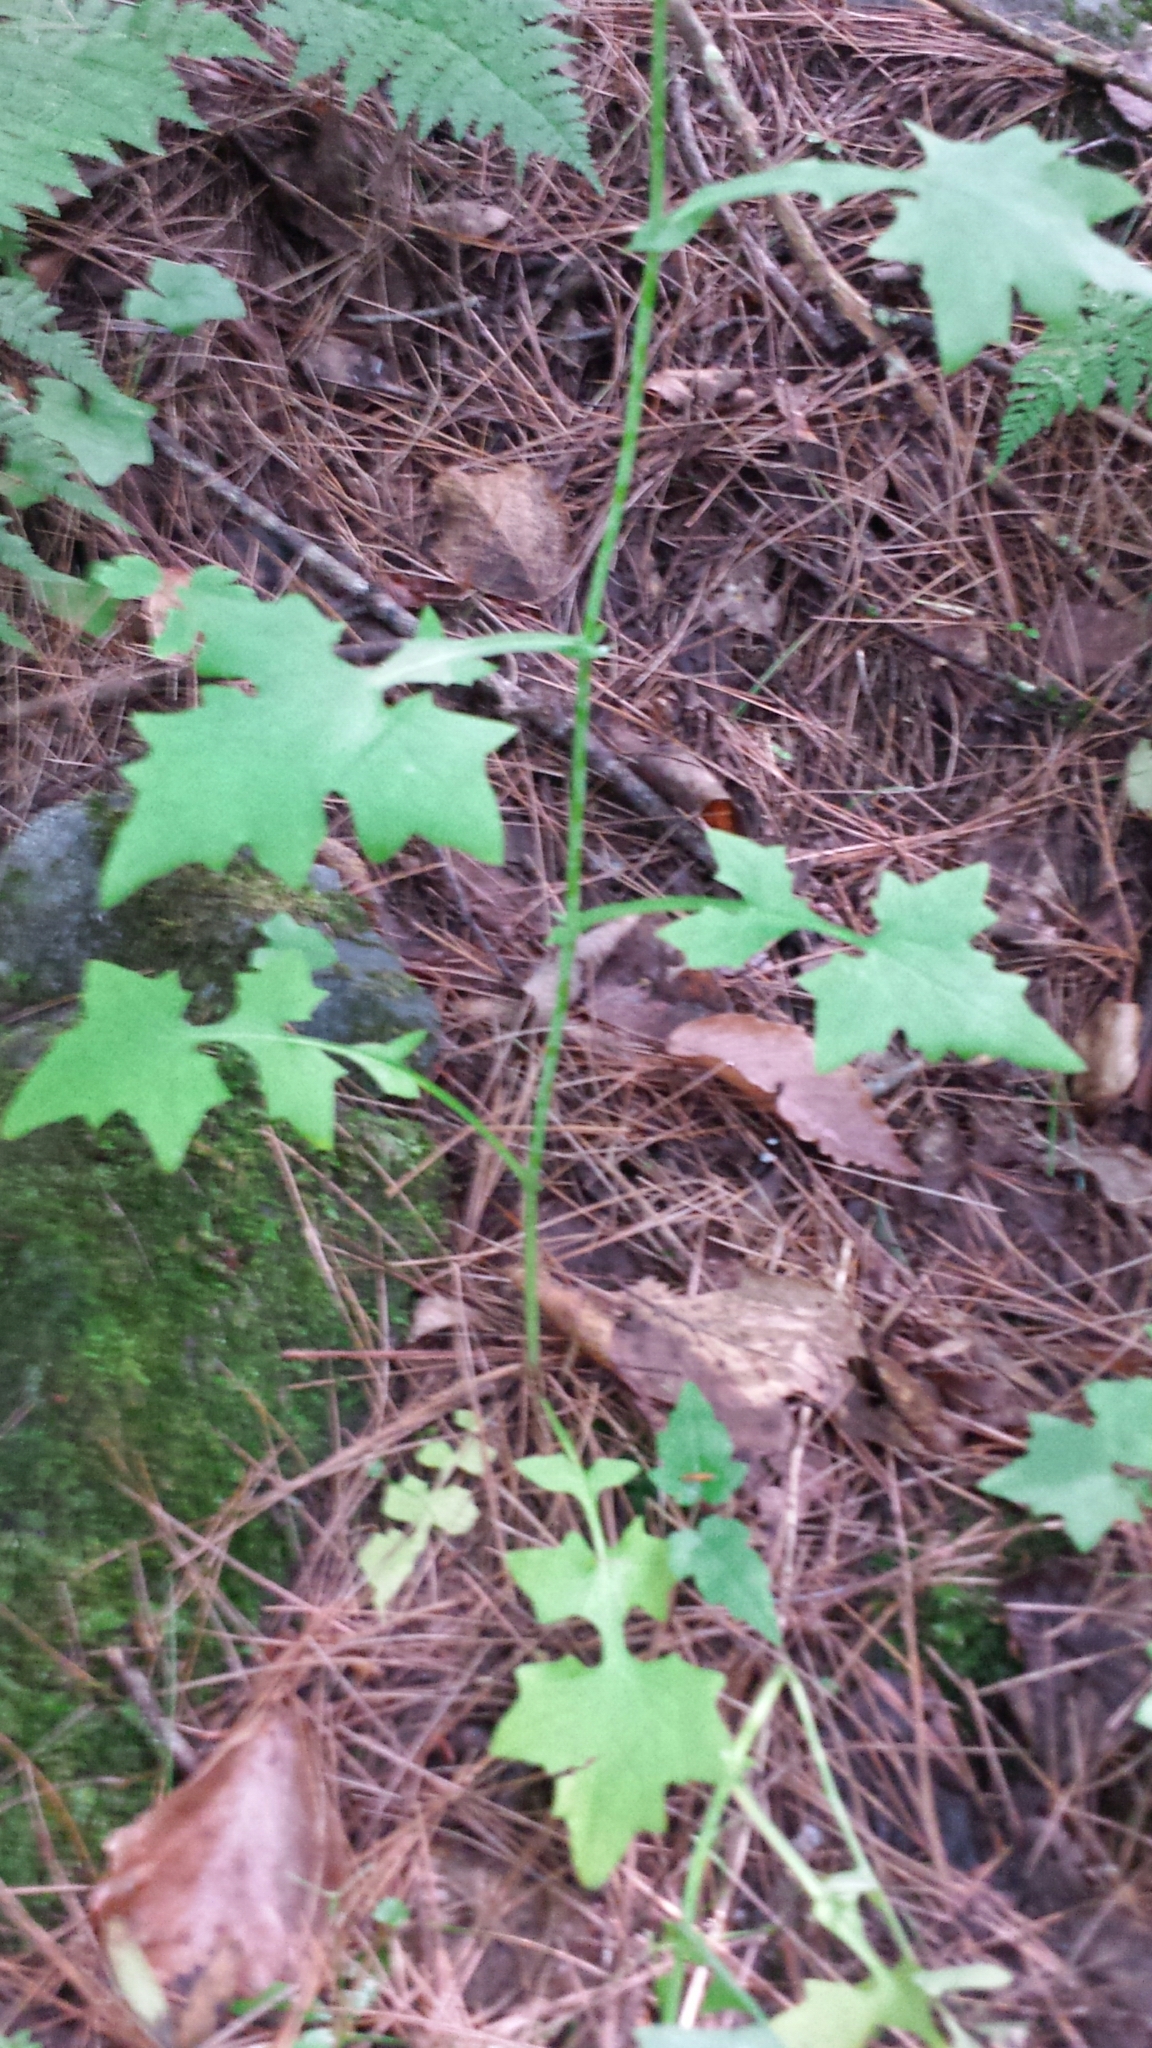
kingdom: Plantae
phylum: Tracheophyta
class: Magnoliopsida
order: Asterales
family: Asteraceae
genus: Mycelis
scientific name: Mycelis muralis
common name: Wall lettuce
